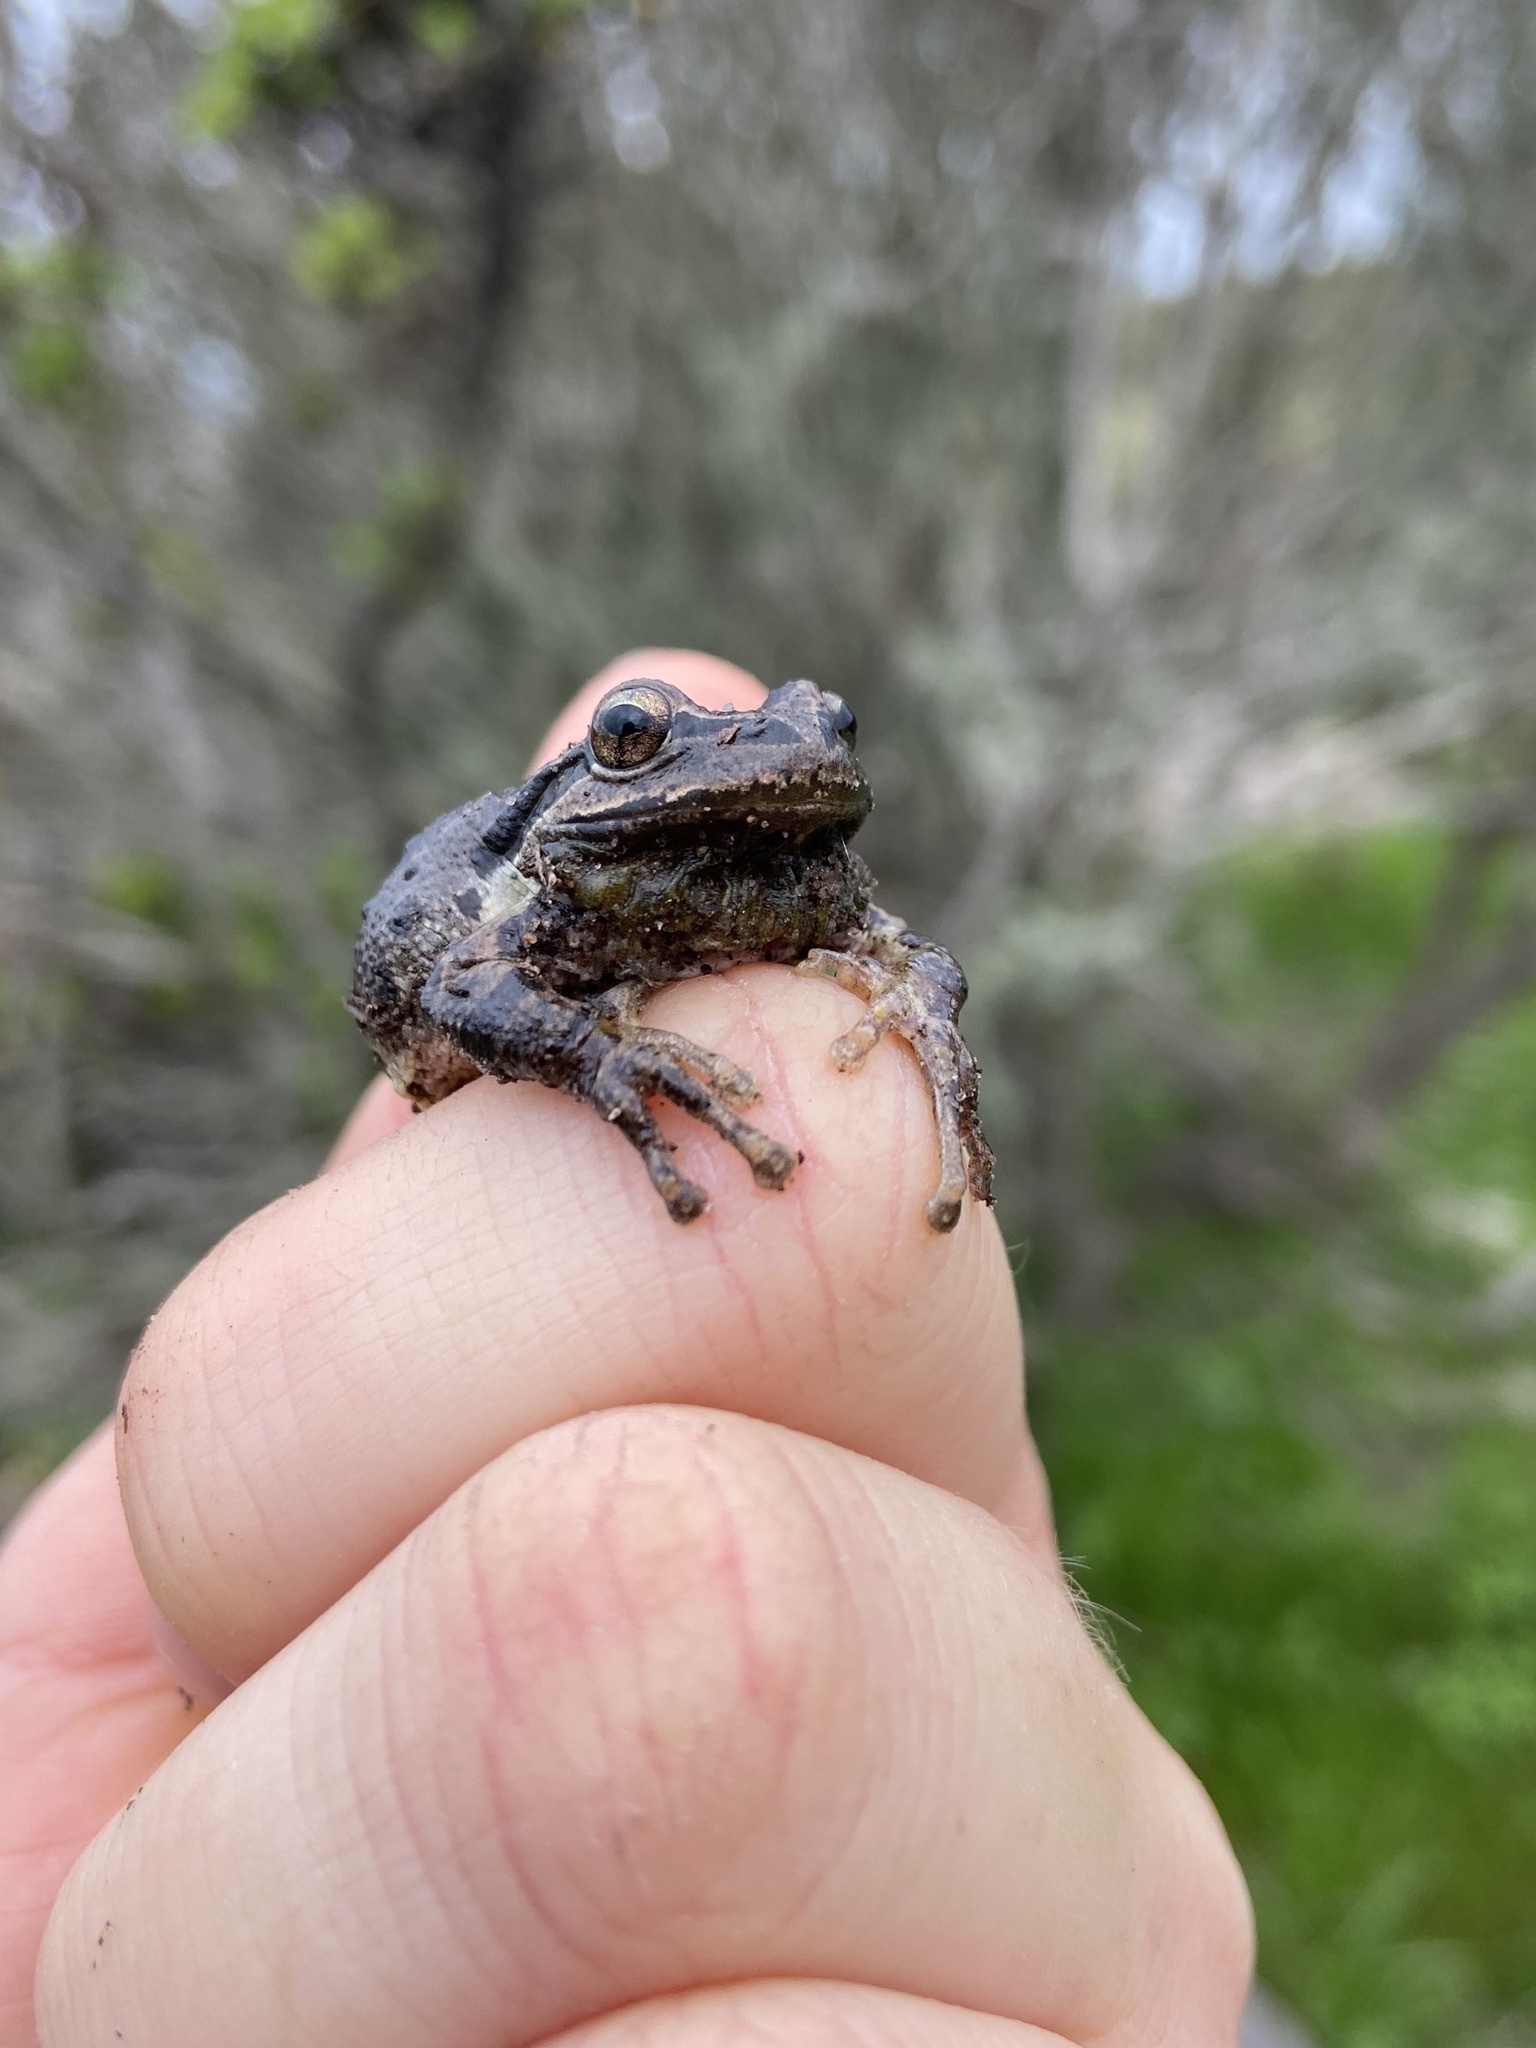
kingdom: Animalia
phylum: Chordata
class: Amphibia
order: Anura
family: Hylidae
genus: Pseudacris
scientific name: Pseudacris regilla
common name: Pacific chorus frog
